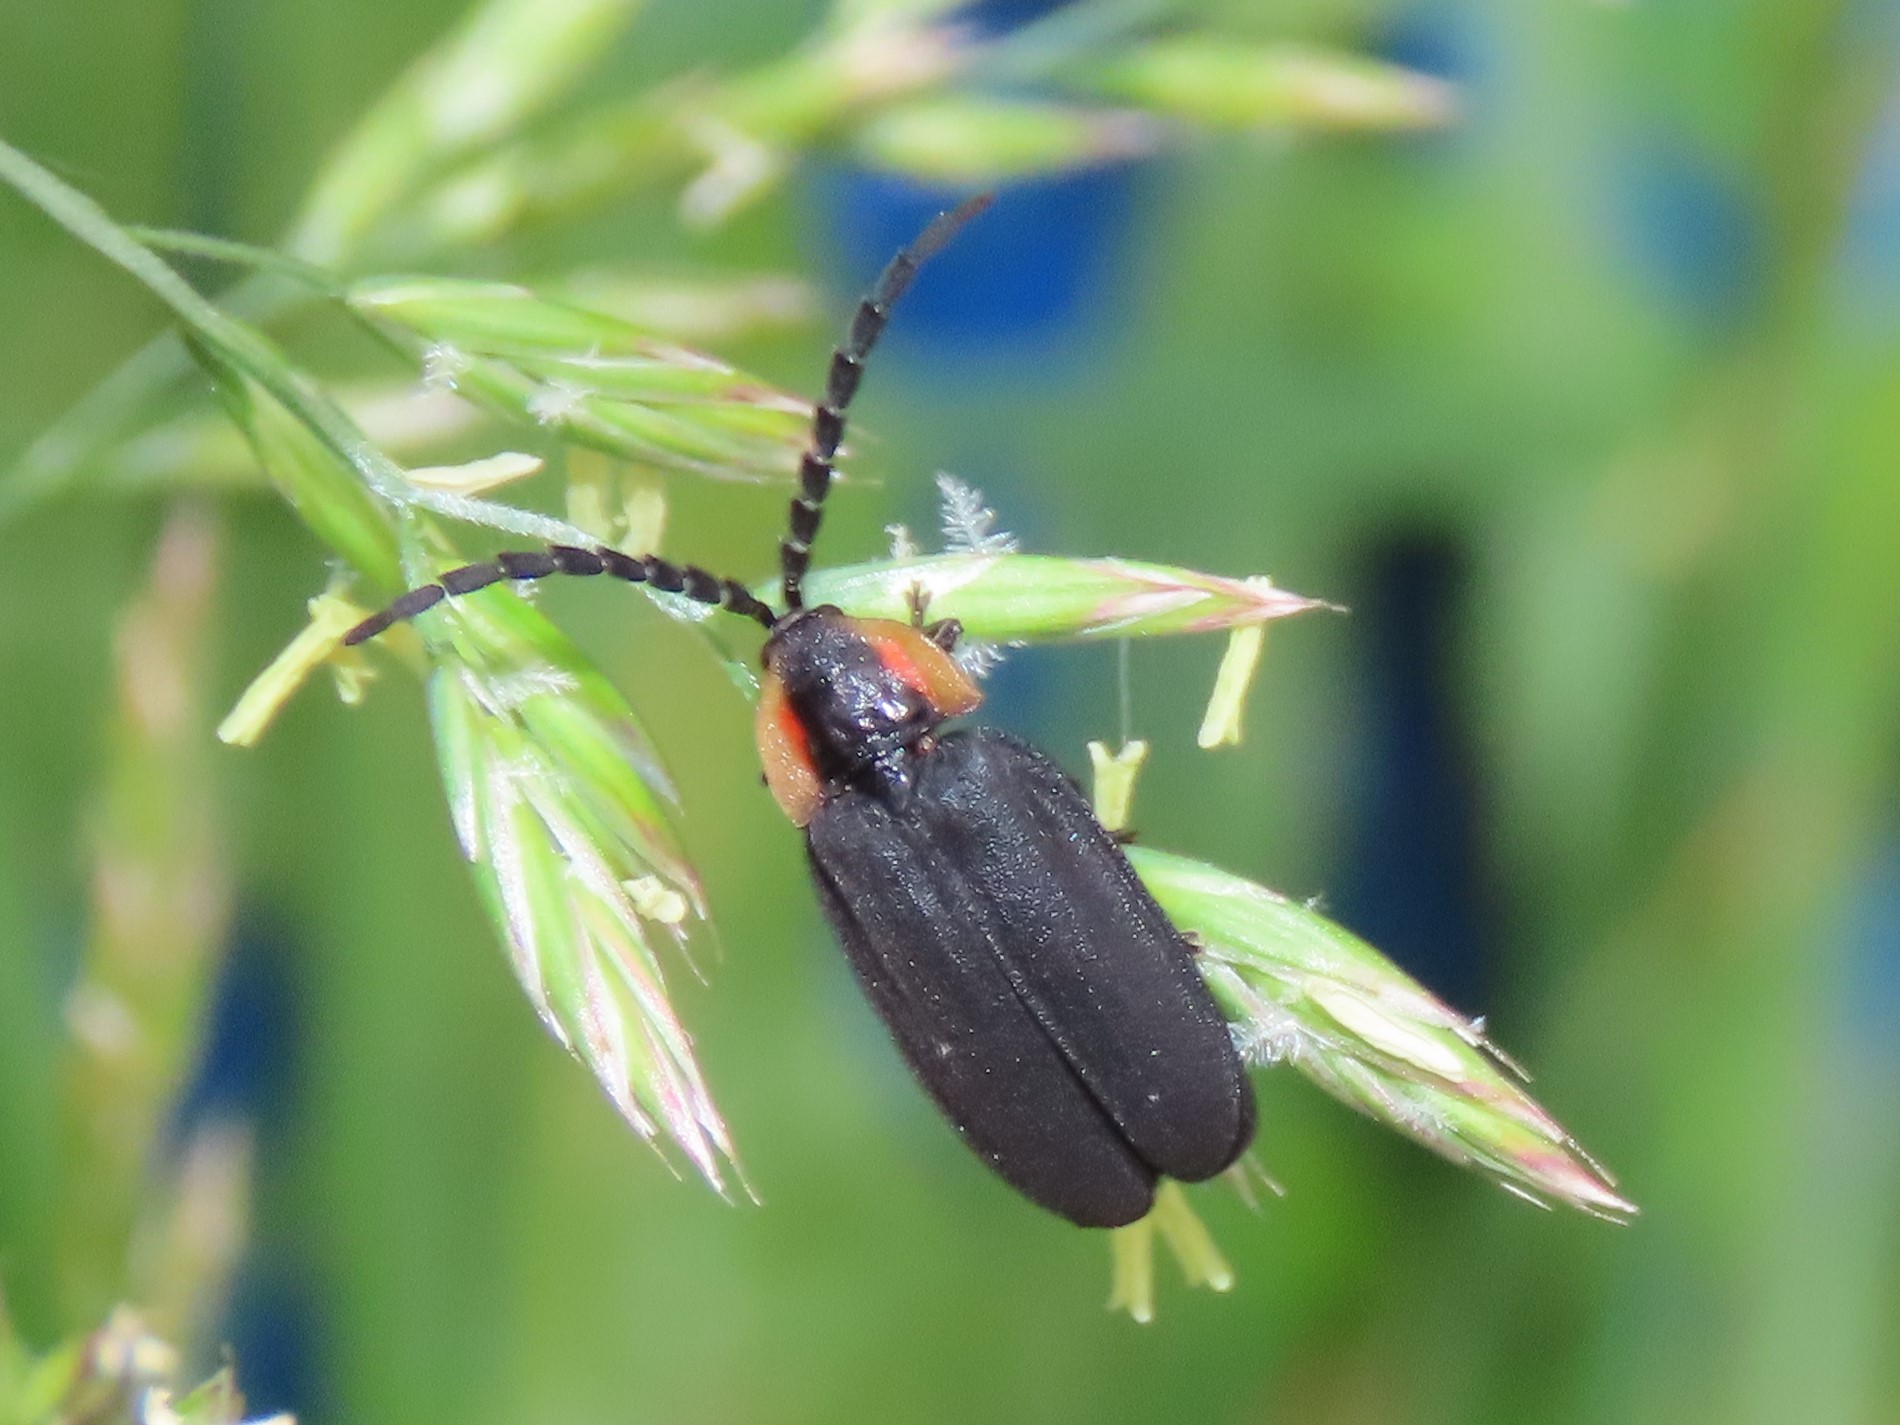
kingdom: Animalia
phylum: Arthropoda
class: Insecta
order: Coleoptera
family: Lampyridae
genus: Lucidota
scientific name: Lucidota atra
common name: Black firefly
